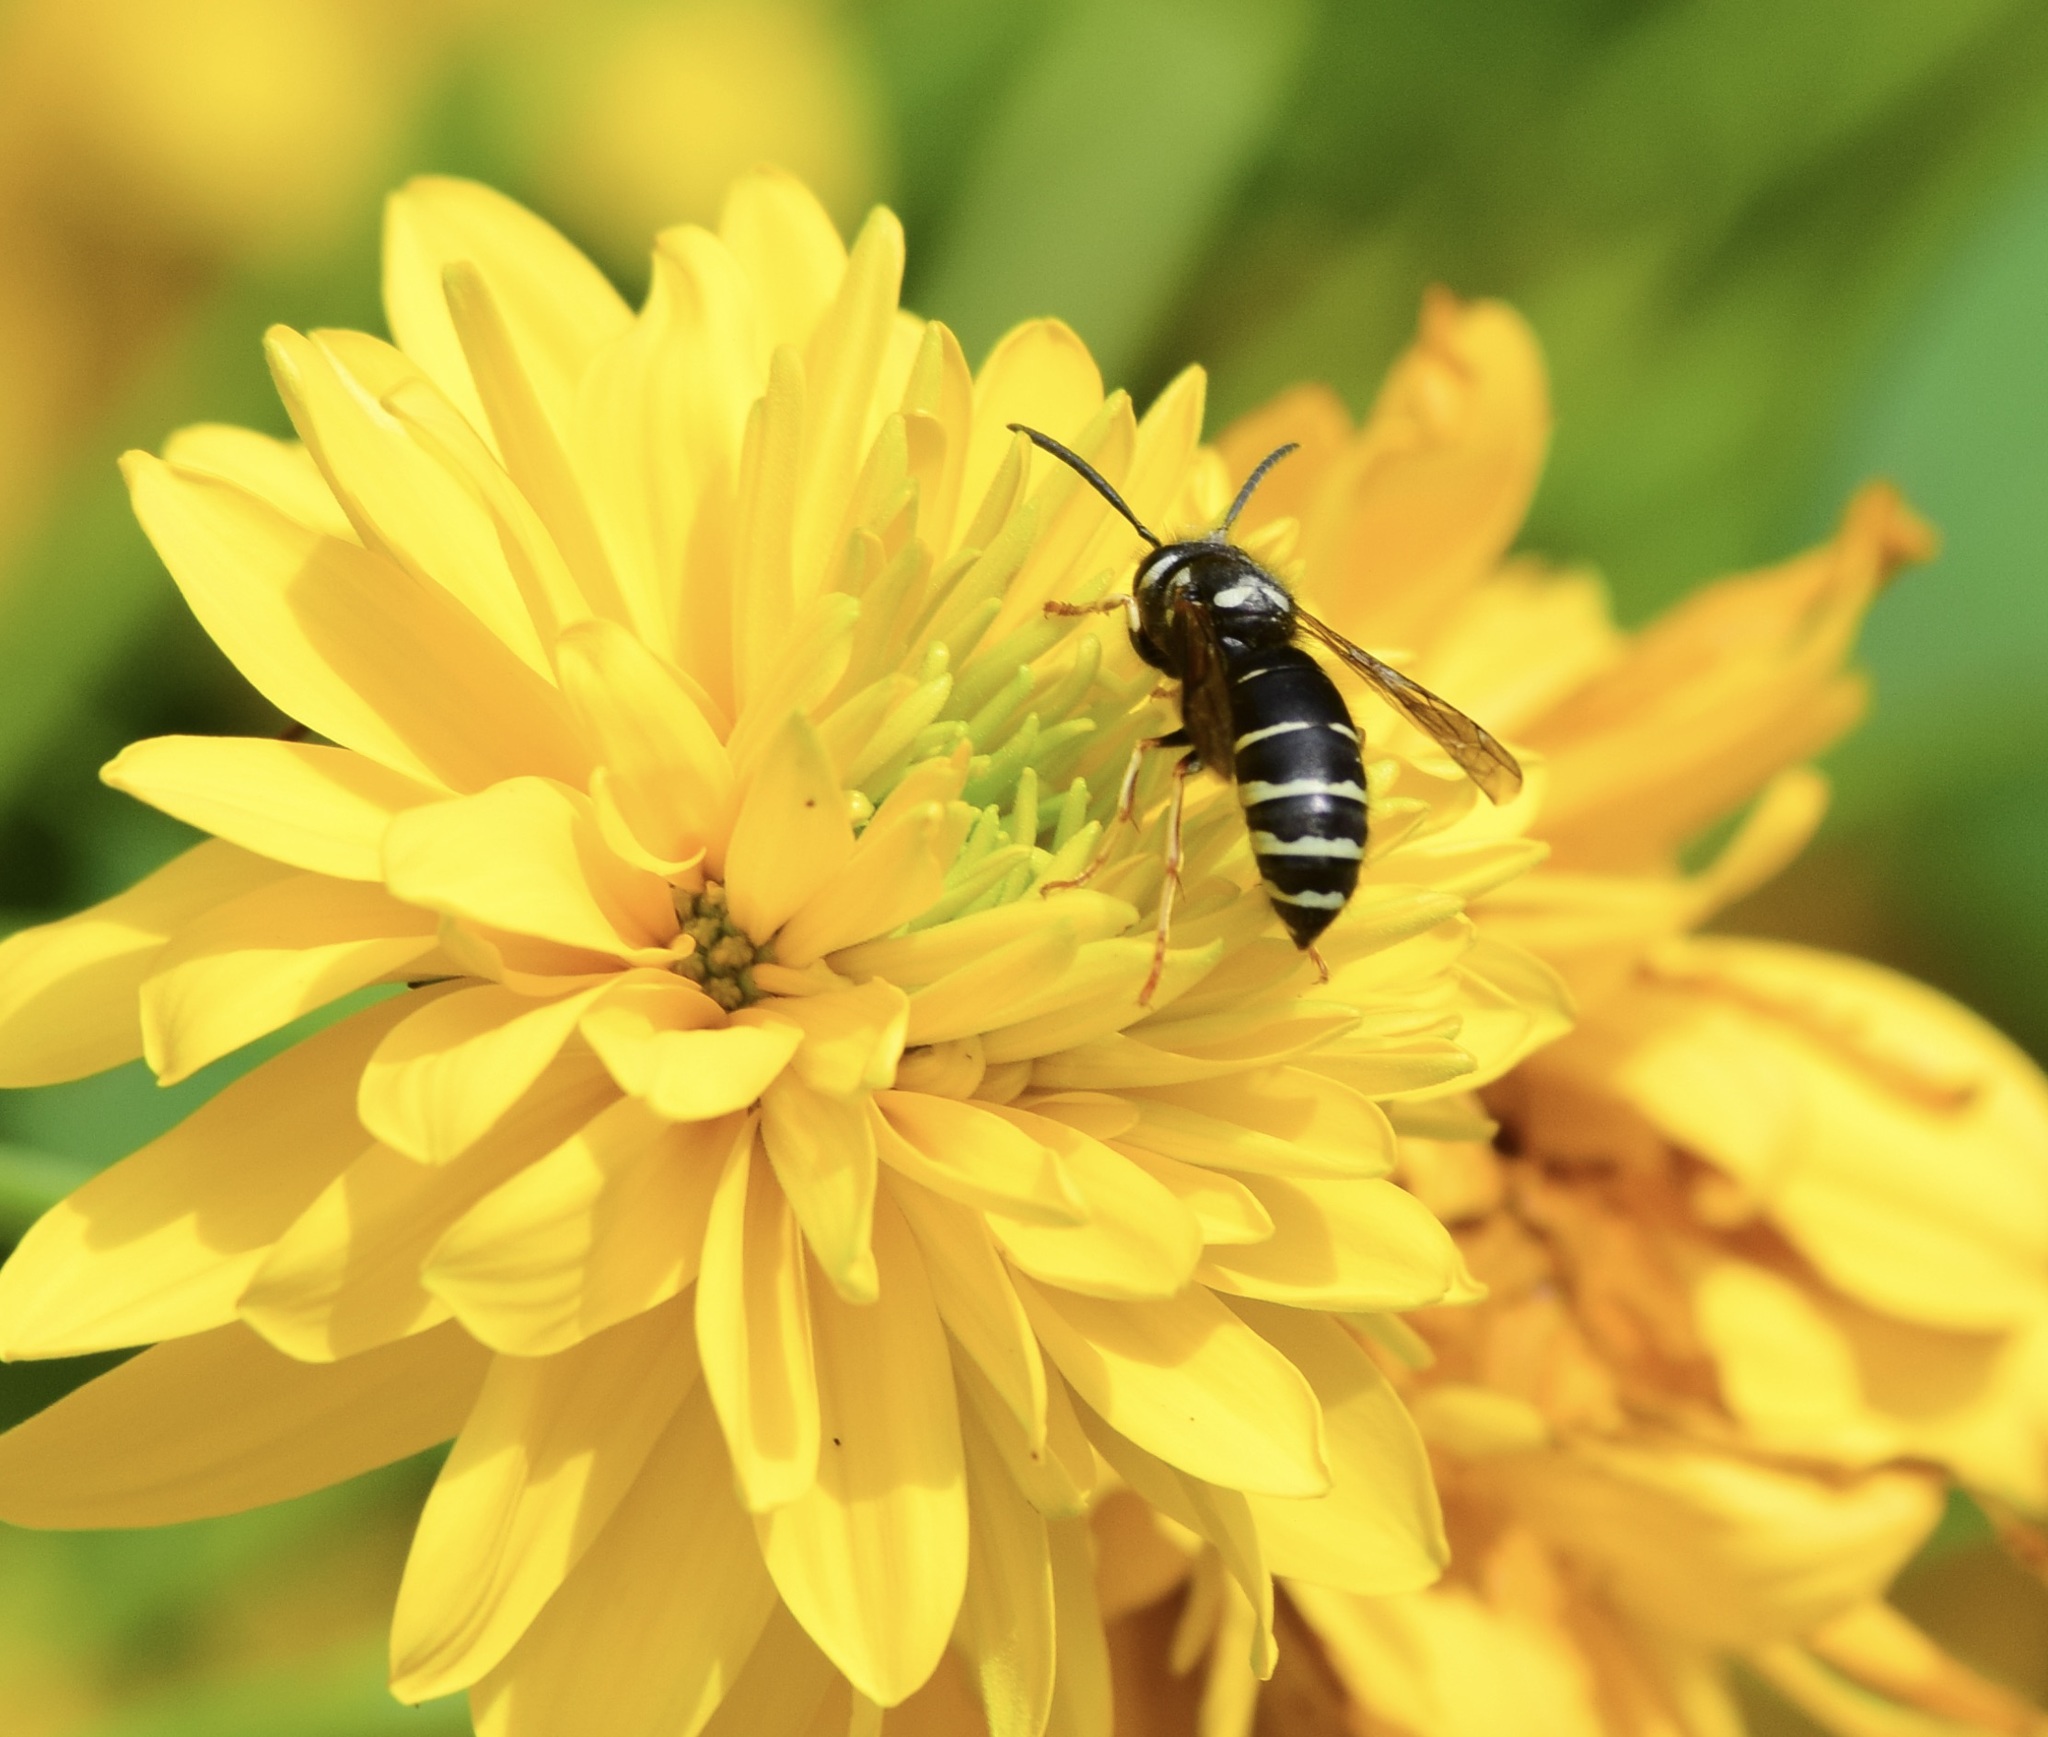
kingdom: Animalia
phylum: Arthropoda
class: Insecta
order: Hymenoptera
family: Vespidae
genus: Vespula
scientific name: Vespula consobrina
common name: Blackjacket
